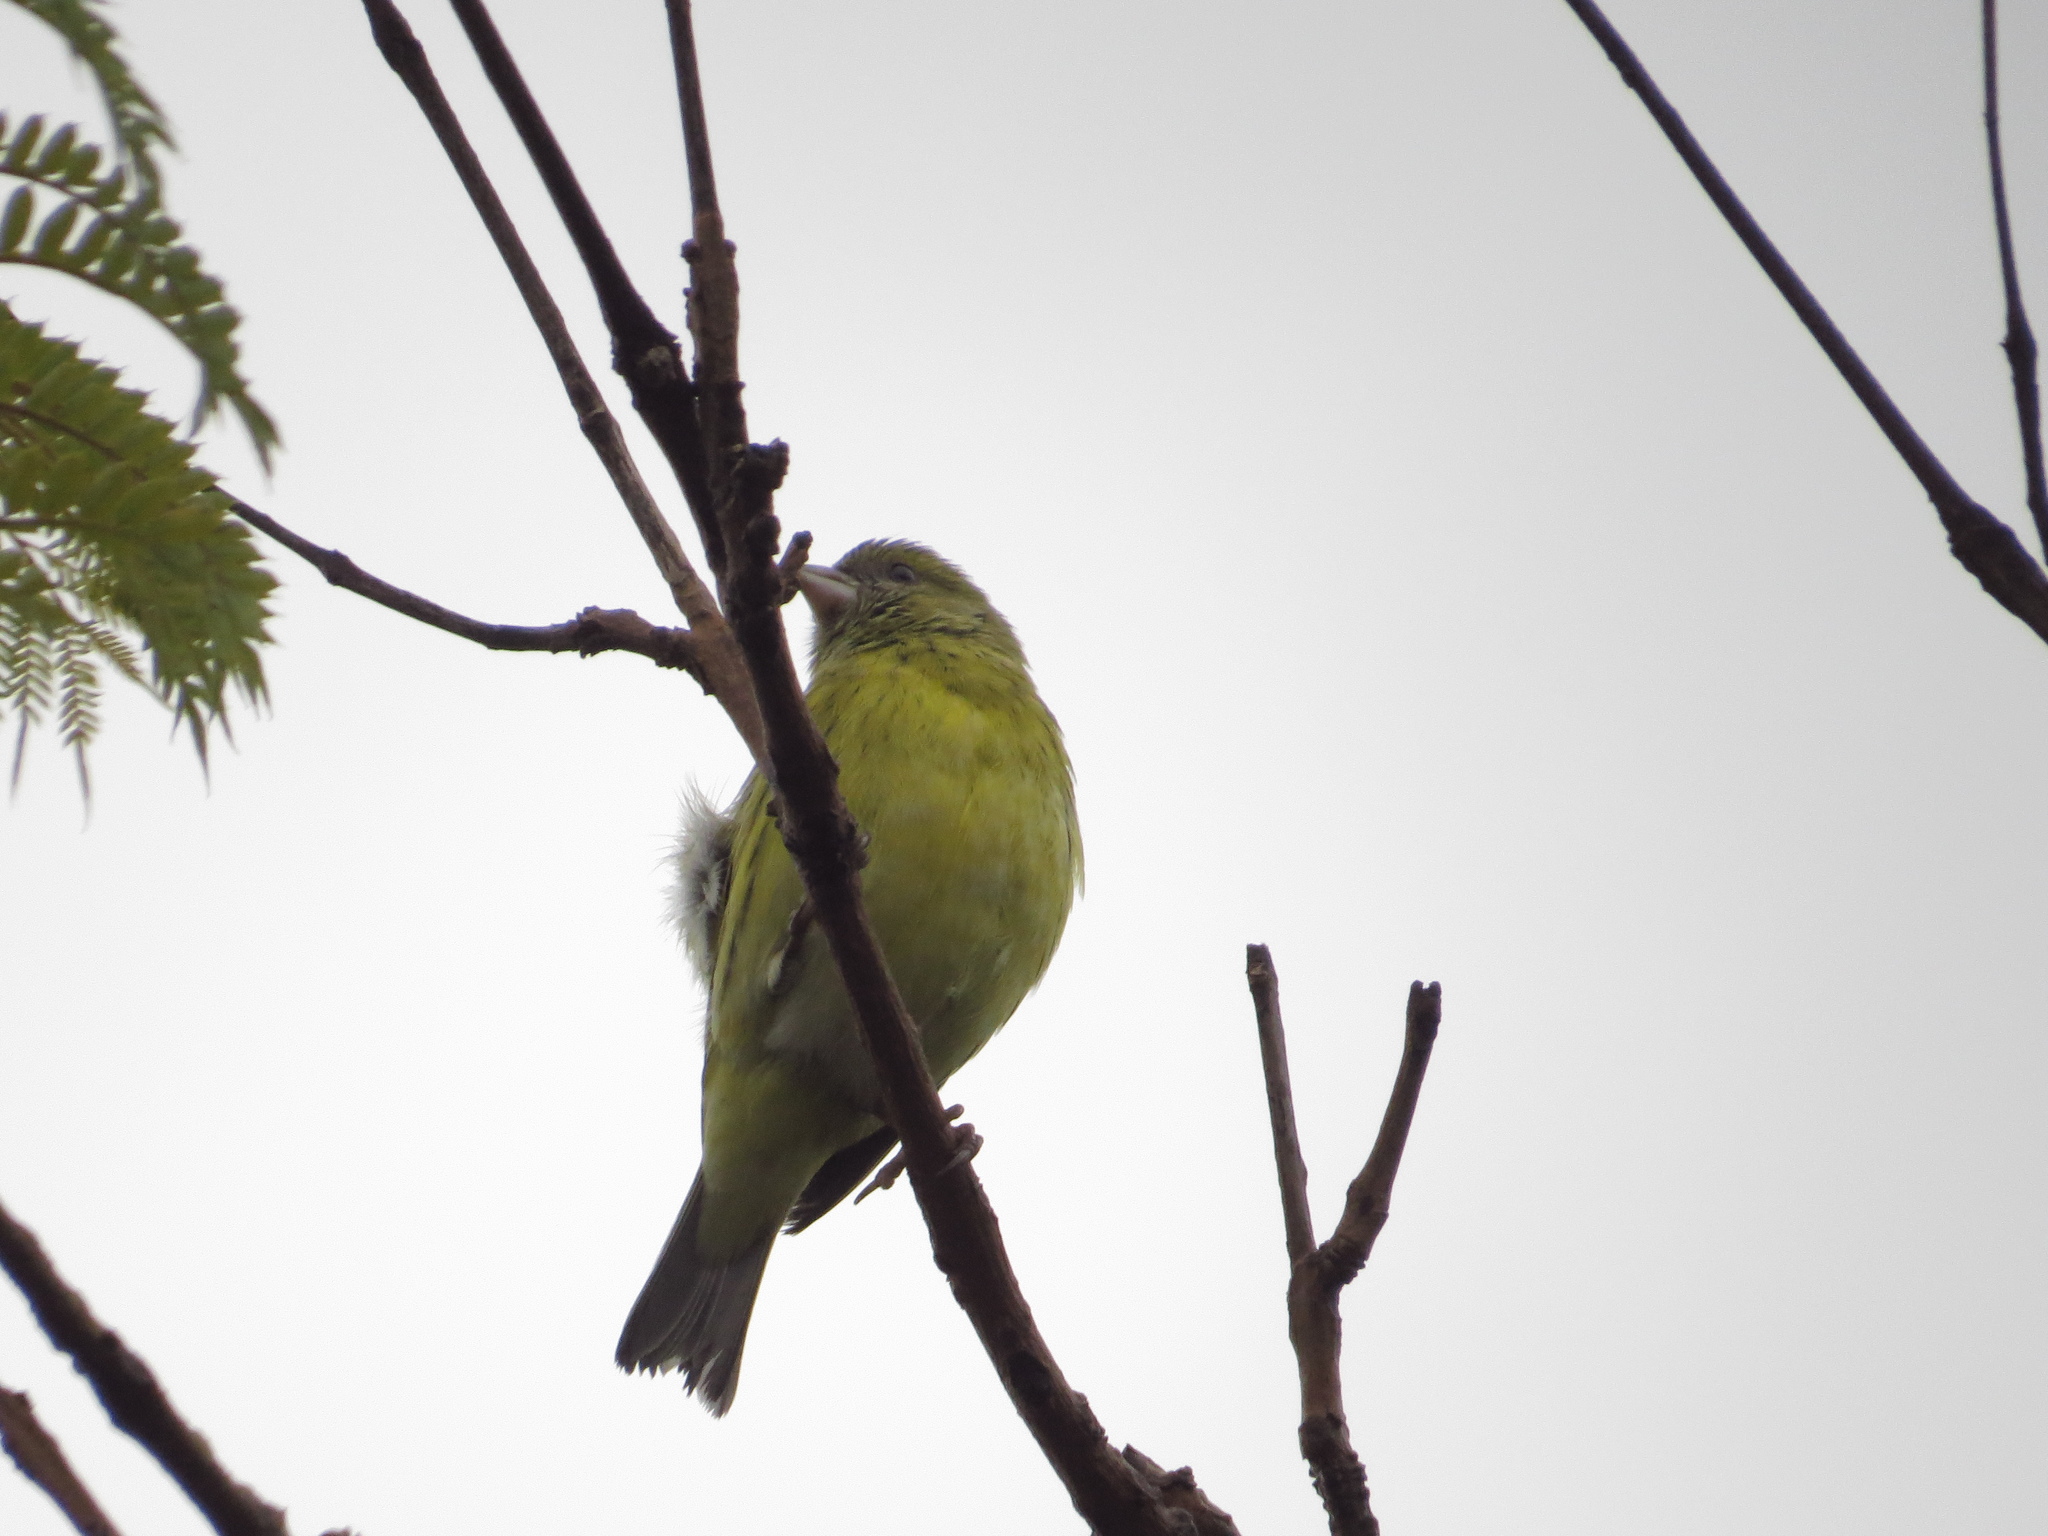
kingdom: Animalia
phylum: Chordata
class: Aves
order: Passeriformes
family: Fringillidae
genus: Crithagra
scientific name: Crithagra citrinelloides
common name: African citril
